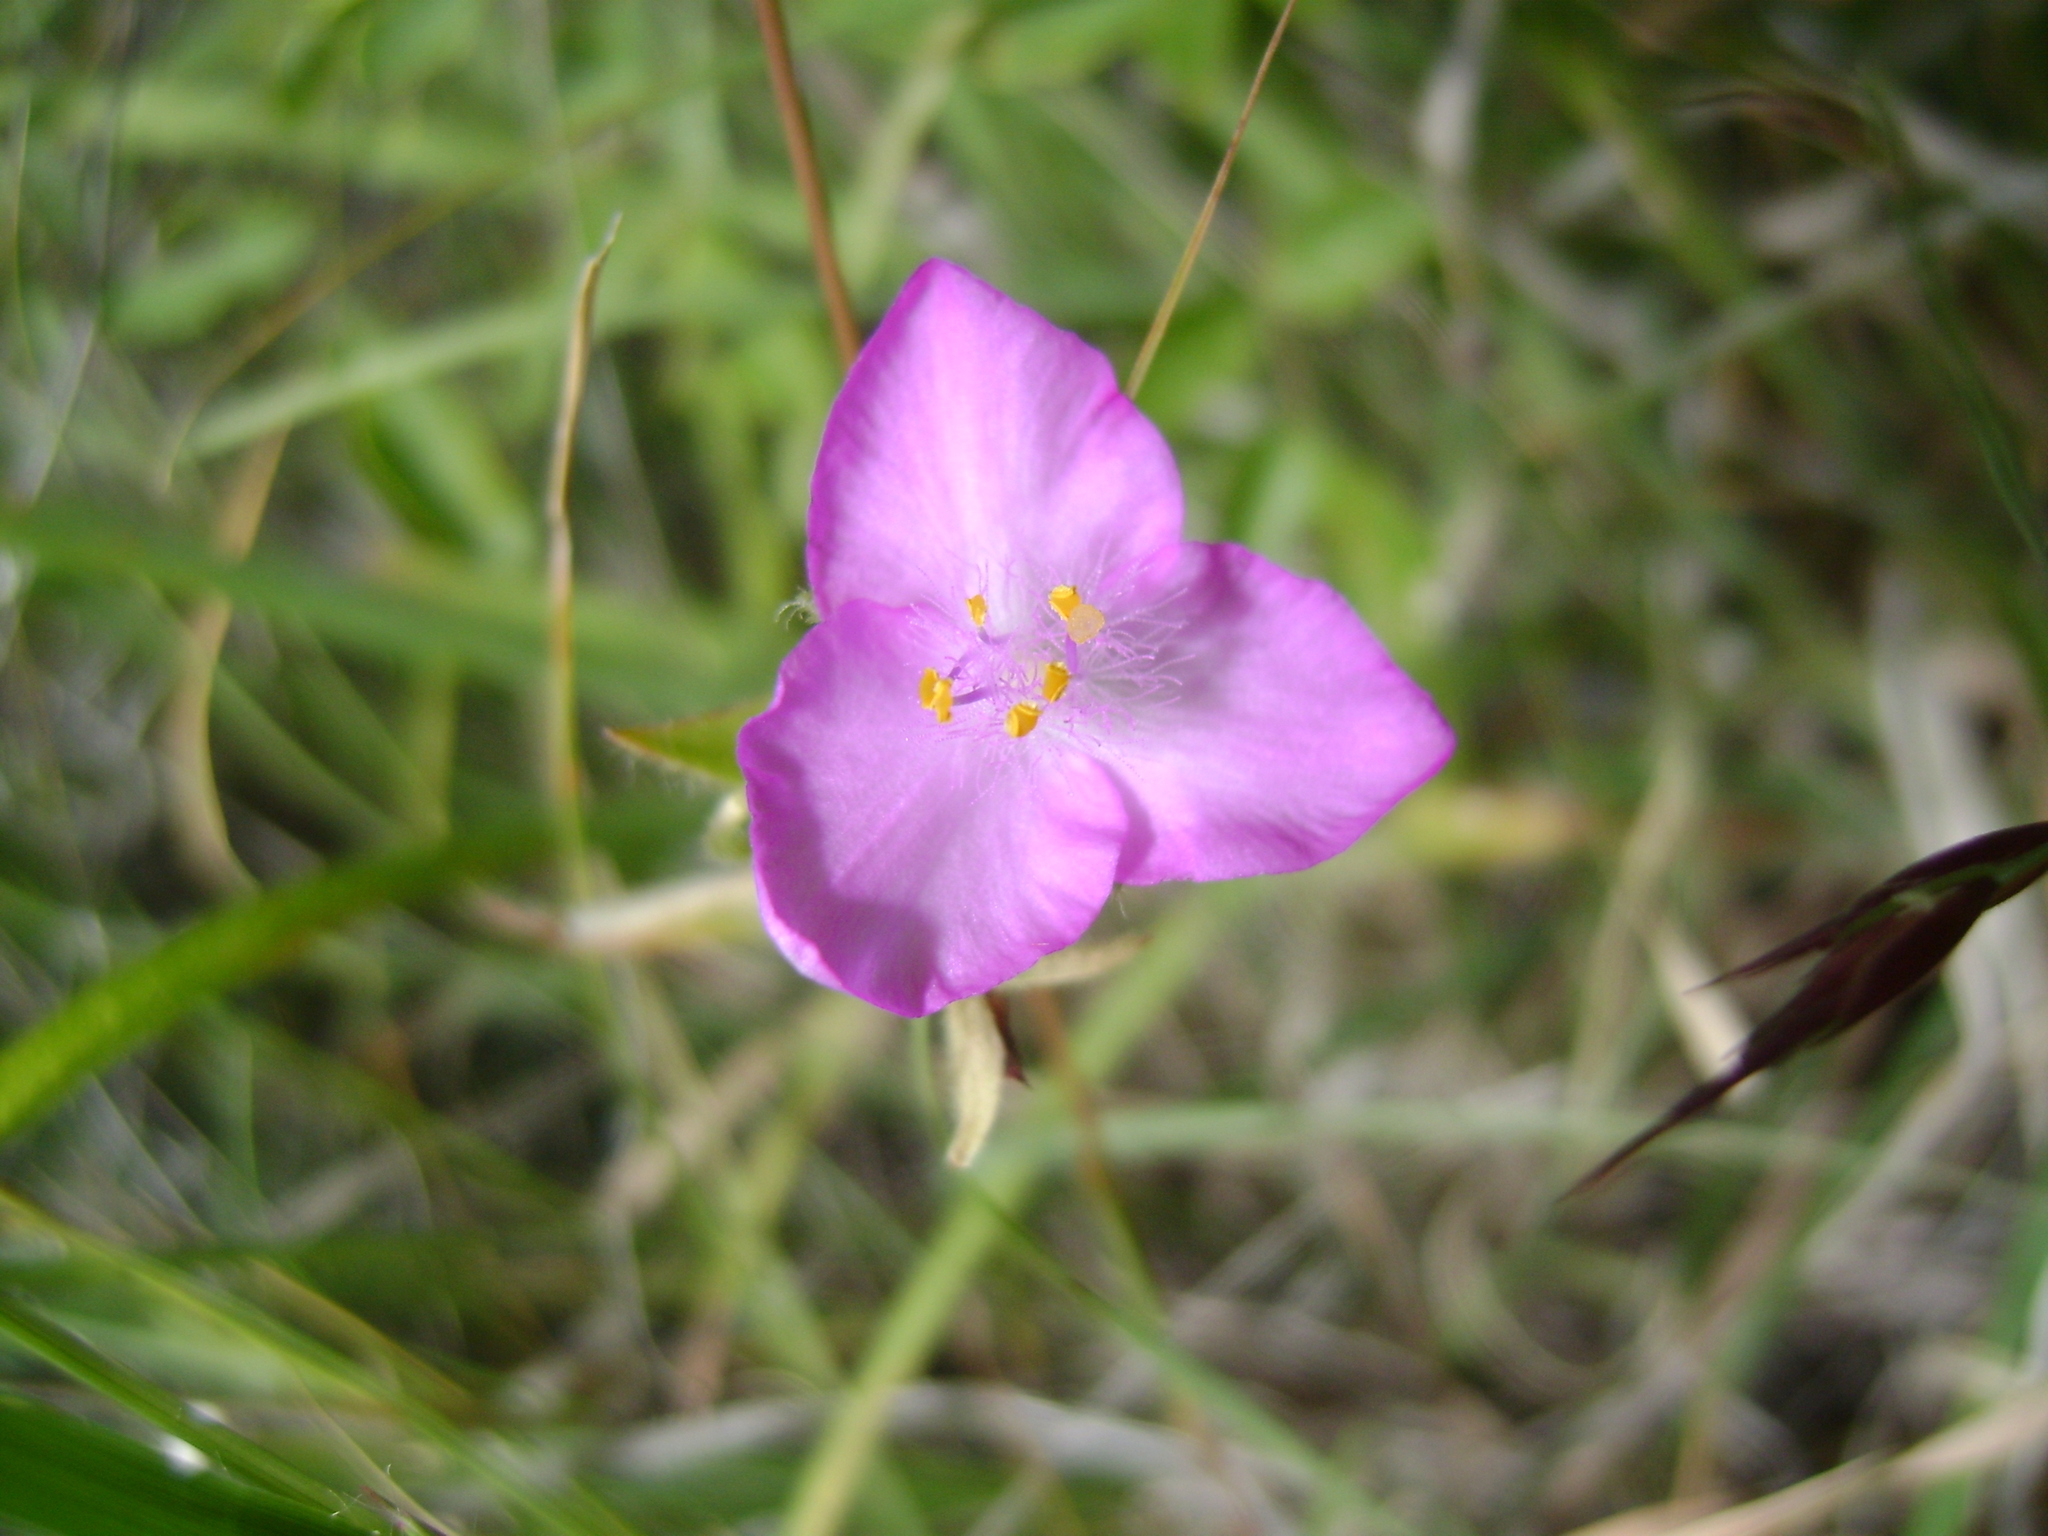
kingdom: Plantae
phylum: Tracheophyta
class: Liliopsida
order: Commelinales
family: Commelinaceae
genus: Tradescantia
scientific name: Tradescantia crassifolia
